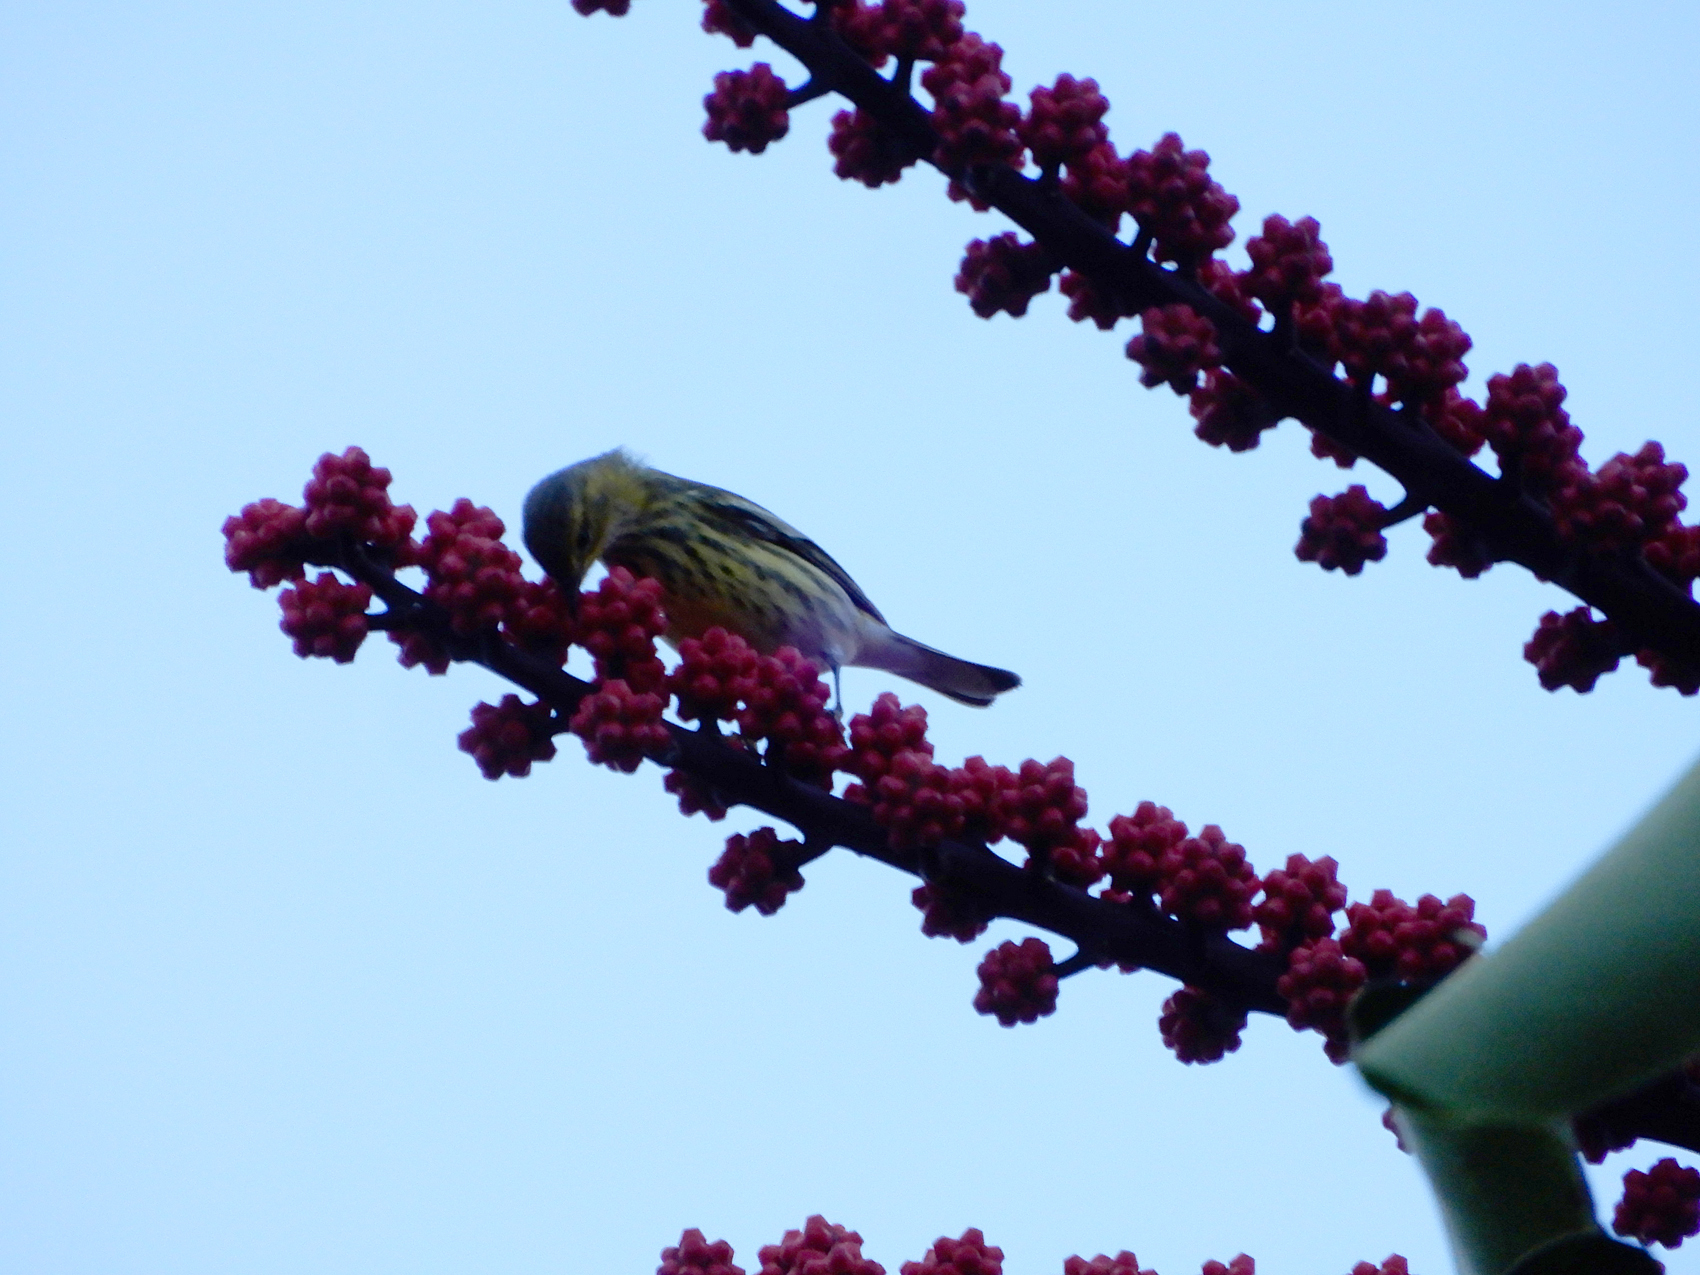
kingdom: Animalia
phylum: Chordata
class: Aves
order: Passeriformes
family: Parulidae
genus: Setophaga
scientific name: Setophaga tigrina
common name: Cape may warbler
